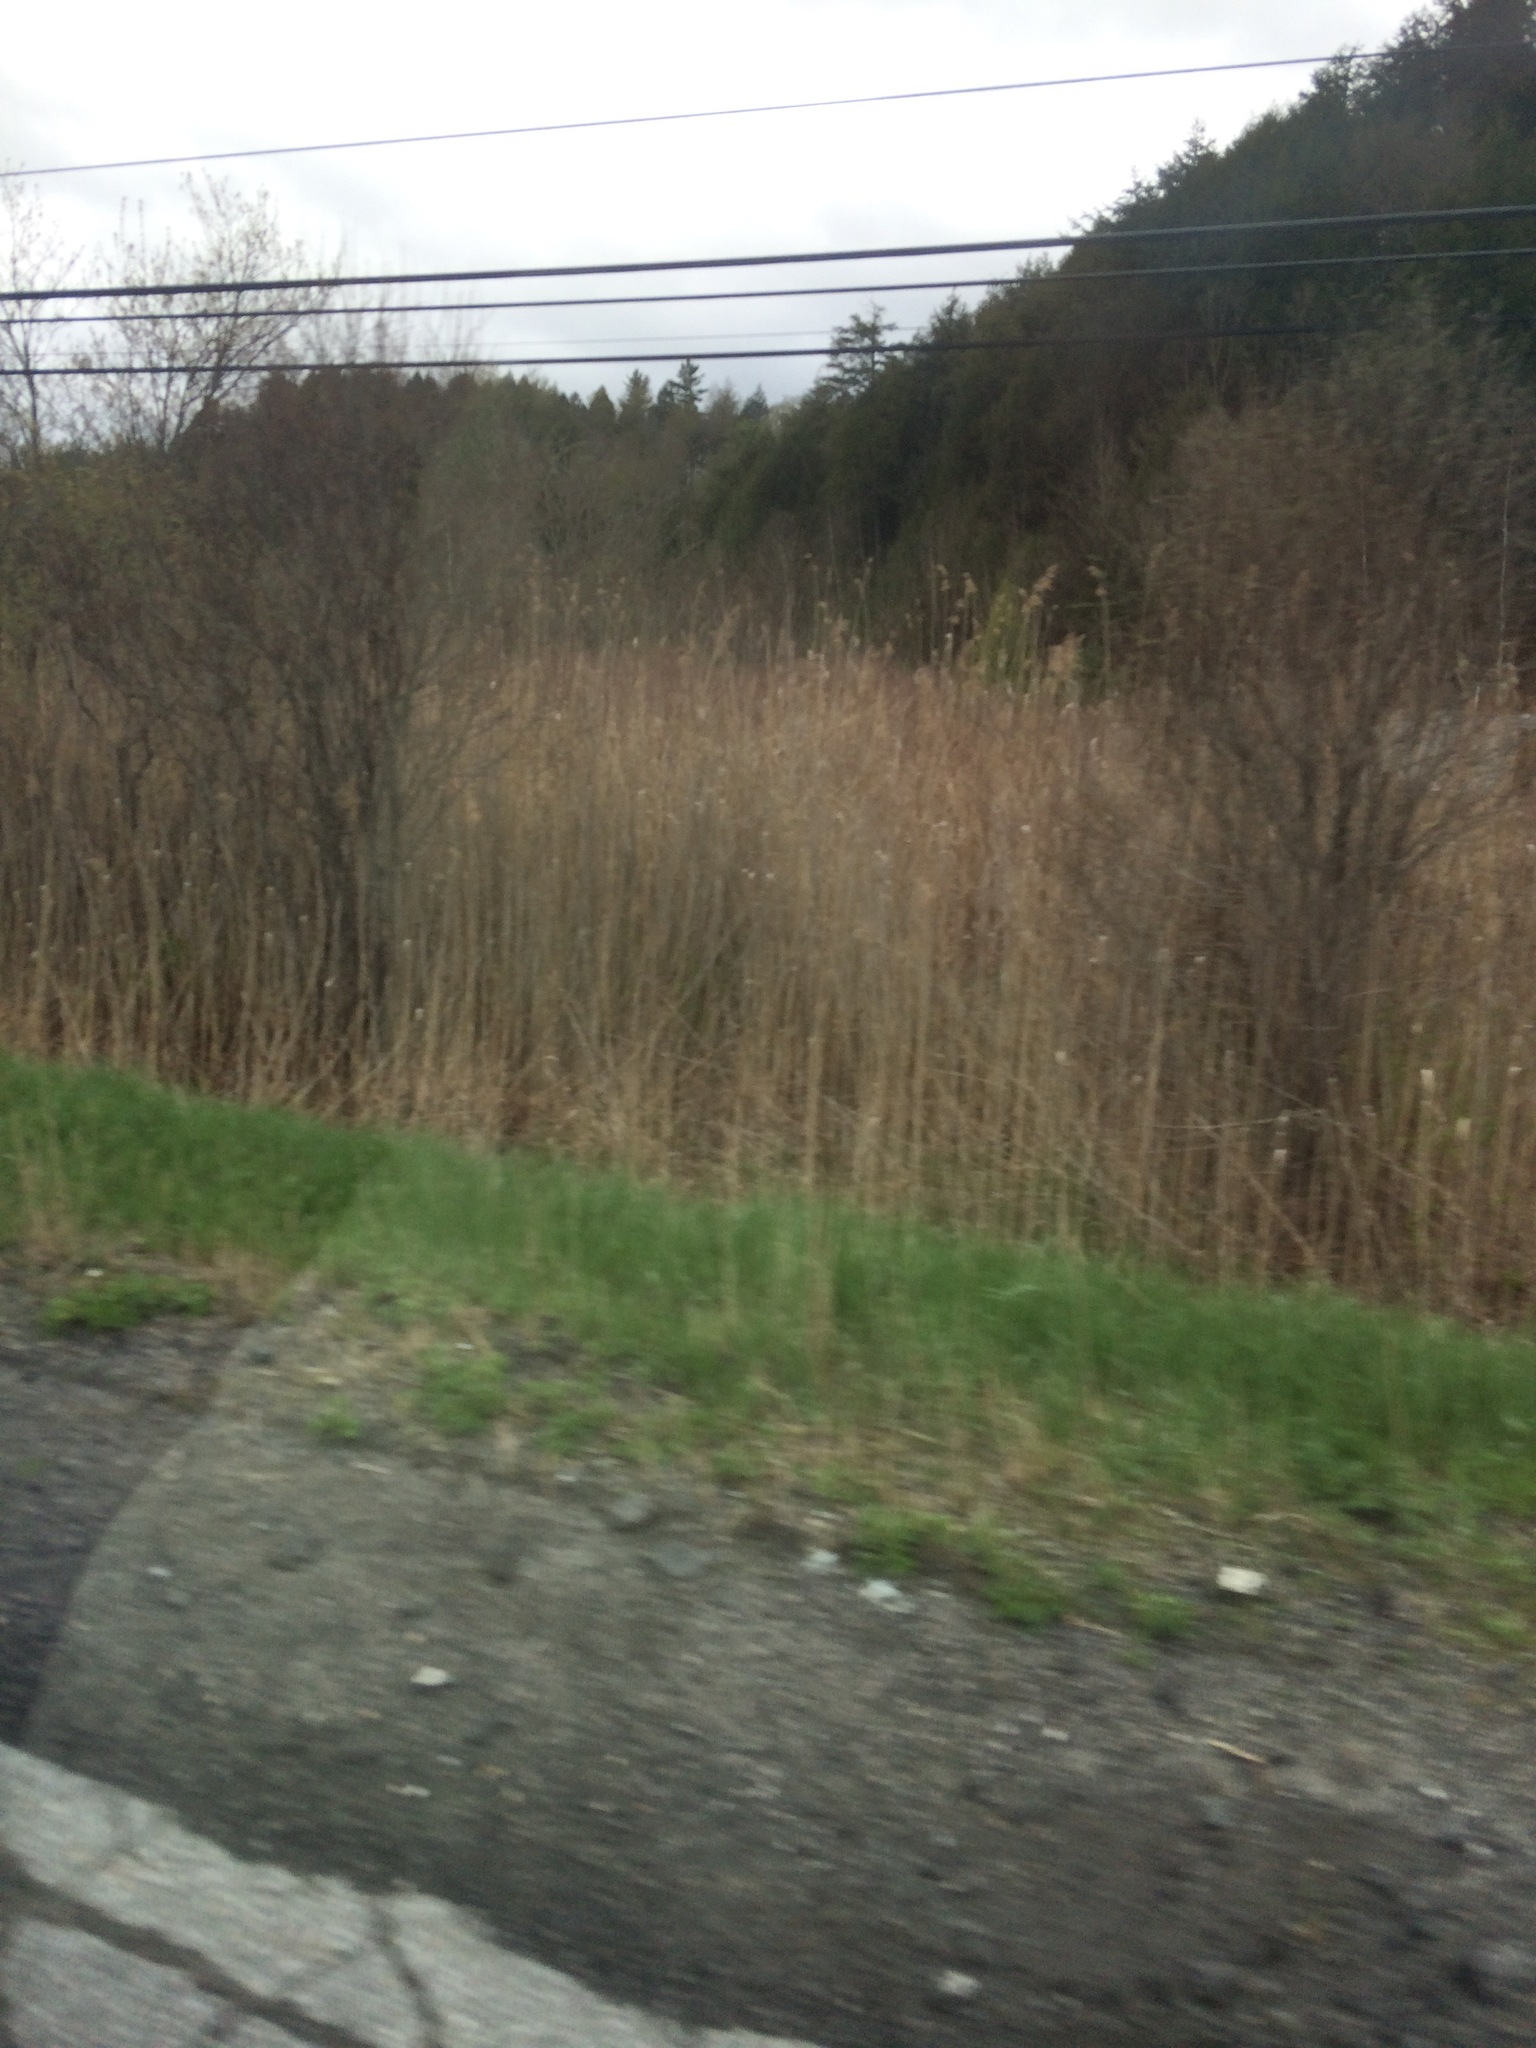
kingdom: Plantae
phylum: Tracheophyta
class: Liliopsida
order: Poales
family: Poaceae
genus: Phragmites
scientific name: Phragmites australis
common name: Common reed
